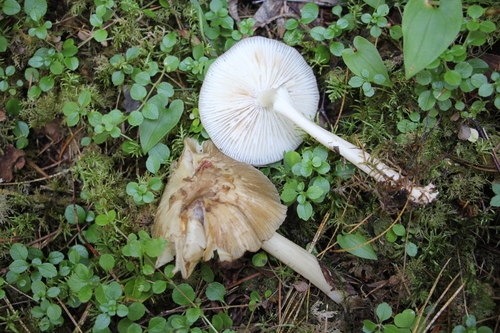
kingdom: Fungi
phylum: Basidiomycota
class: Agaricomycetes
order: Agaricales
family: Tricholomataceae
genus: Megacollybia
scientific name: Megacollybia platyphylla
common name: Whitelaced shank
